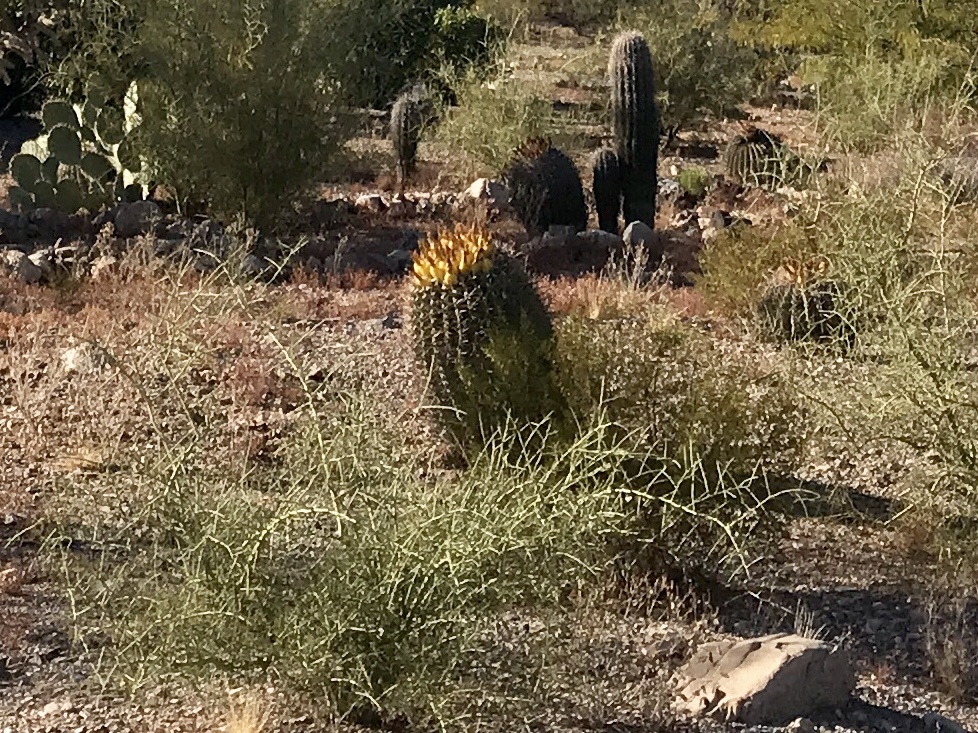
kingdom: Plantae
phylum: Tracheophyta
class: Magnoliopsida
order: Caryophyllales
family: Cactaceae
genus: Ferocactus
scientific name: Ferocactus wislizeni
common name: Candy barrel cactus
